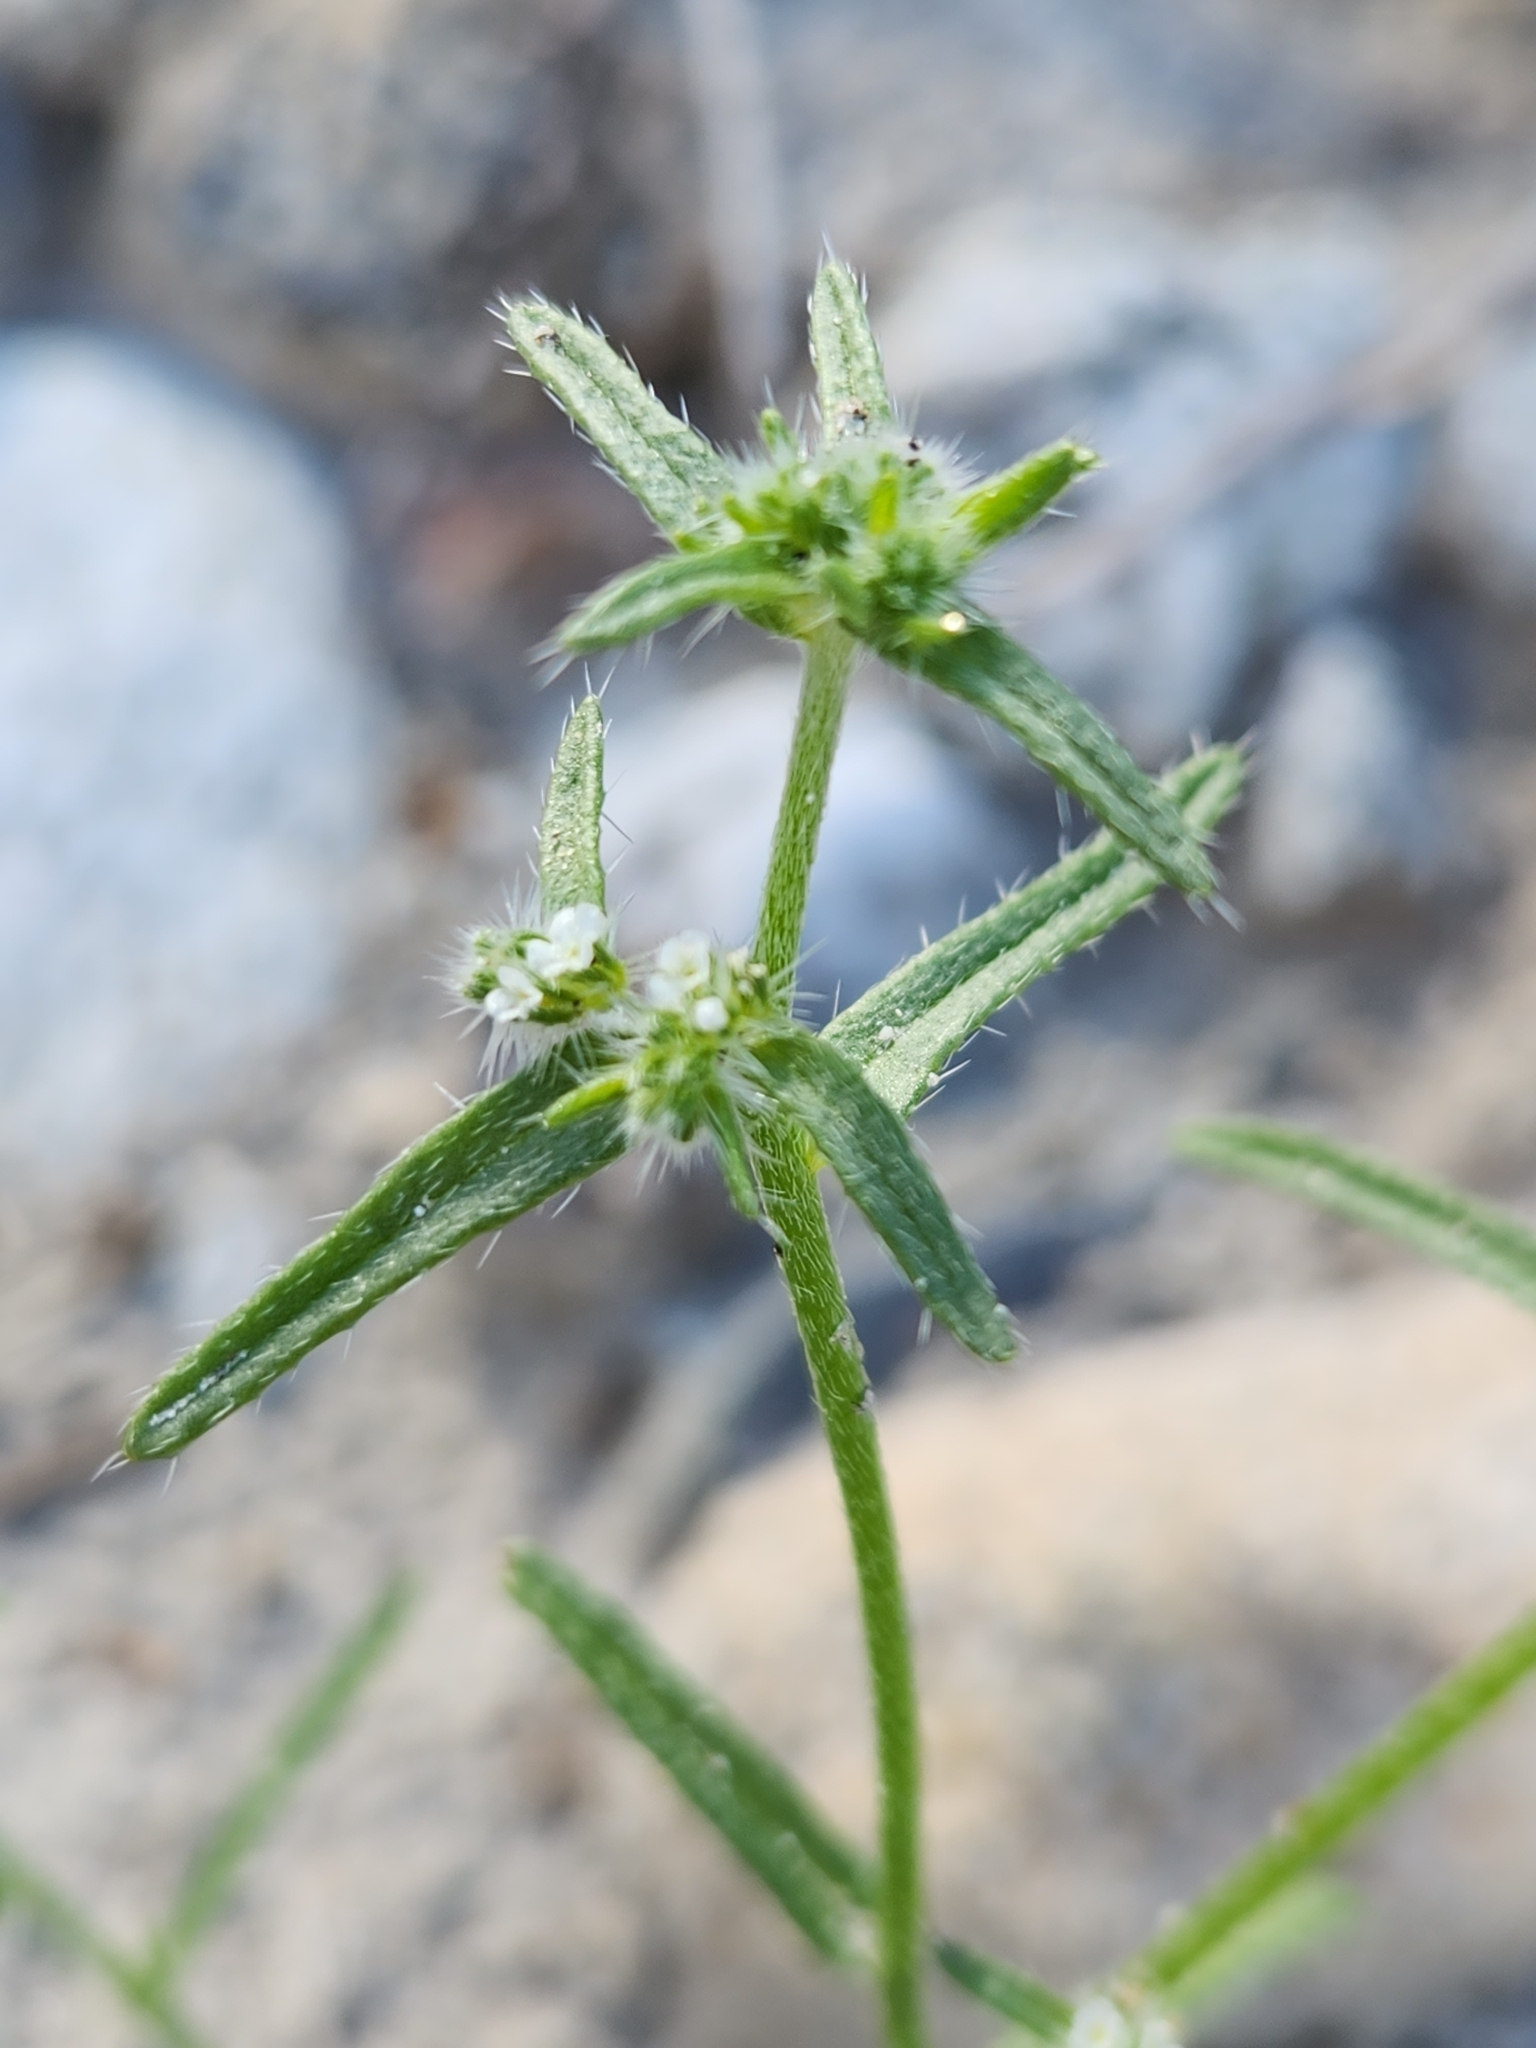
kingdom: Plantae
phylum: Tracheophyta
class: Magnoliopsida
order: Boraginales
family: Boraginaceae
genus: Cryptantha
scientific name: Cryptantha maritima
